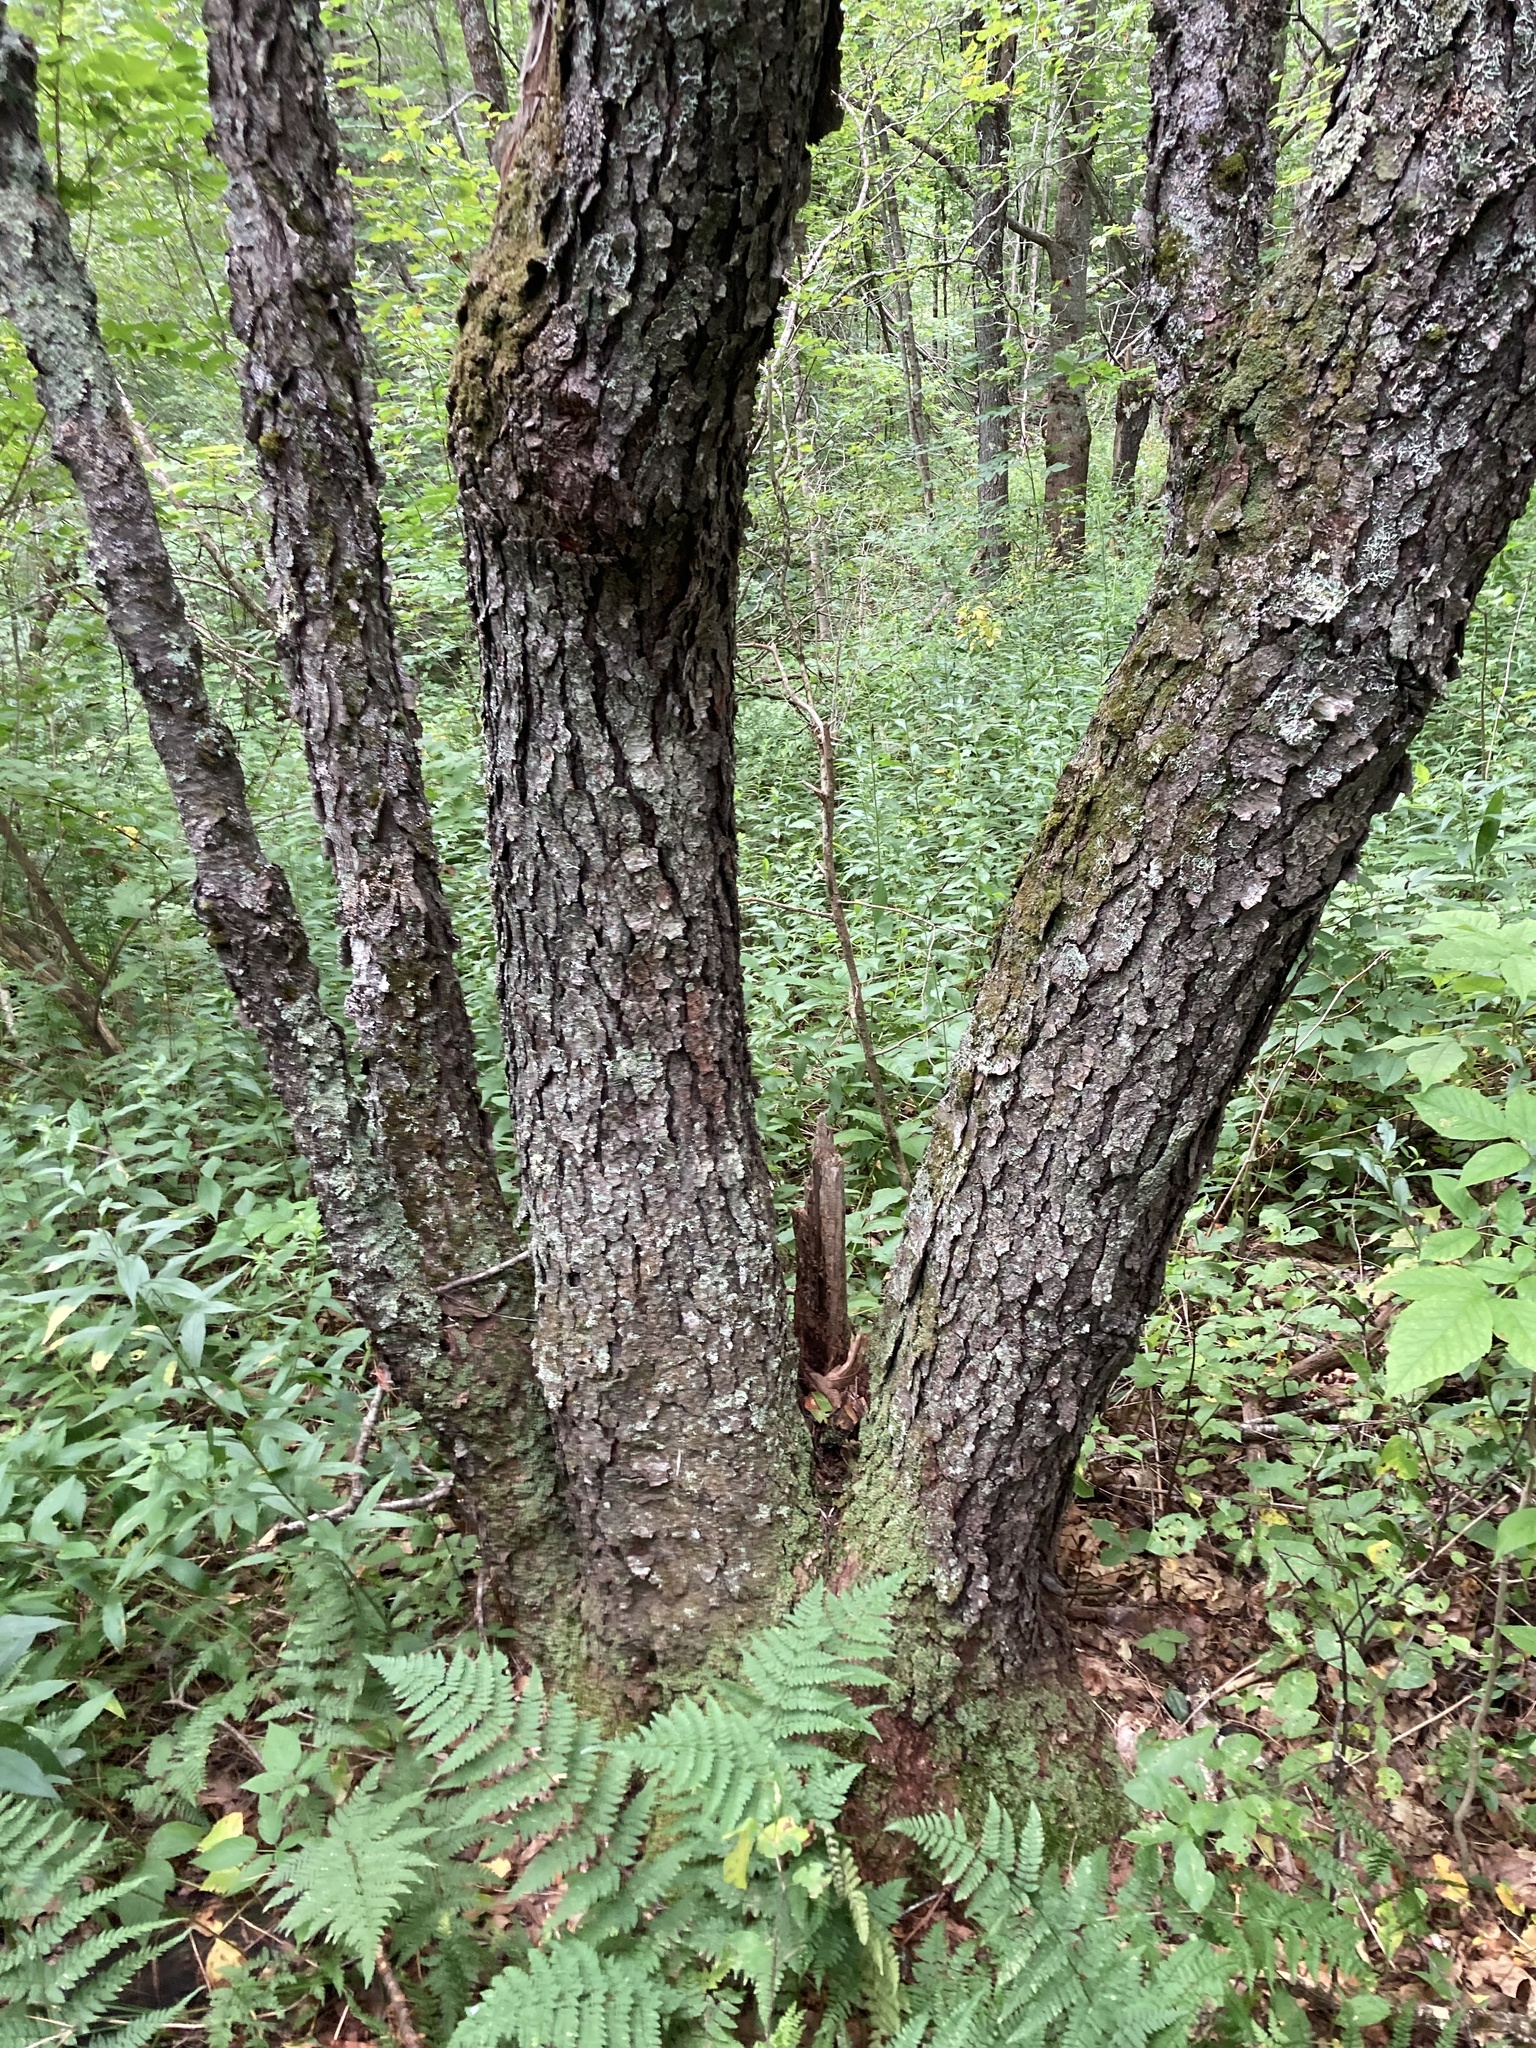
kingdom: Plantae
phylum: Tracheophyta
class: Magnoliopsida
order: Rosales
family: Rosaceae
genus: Prunus
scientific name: Prunus serotina
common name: Black cherry
